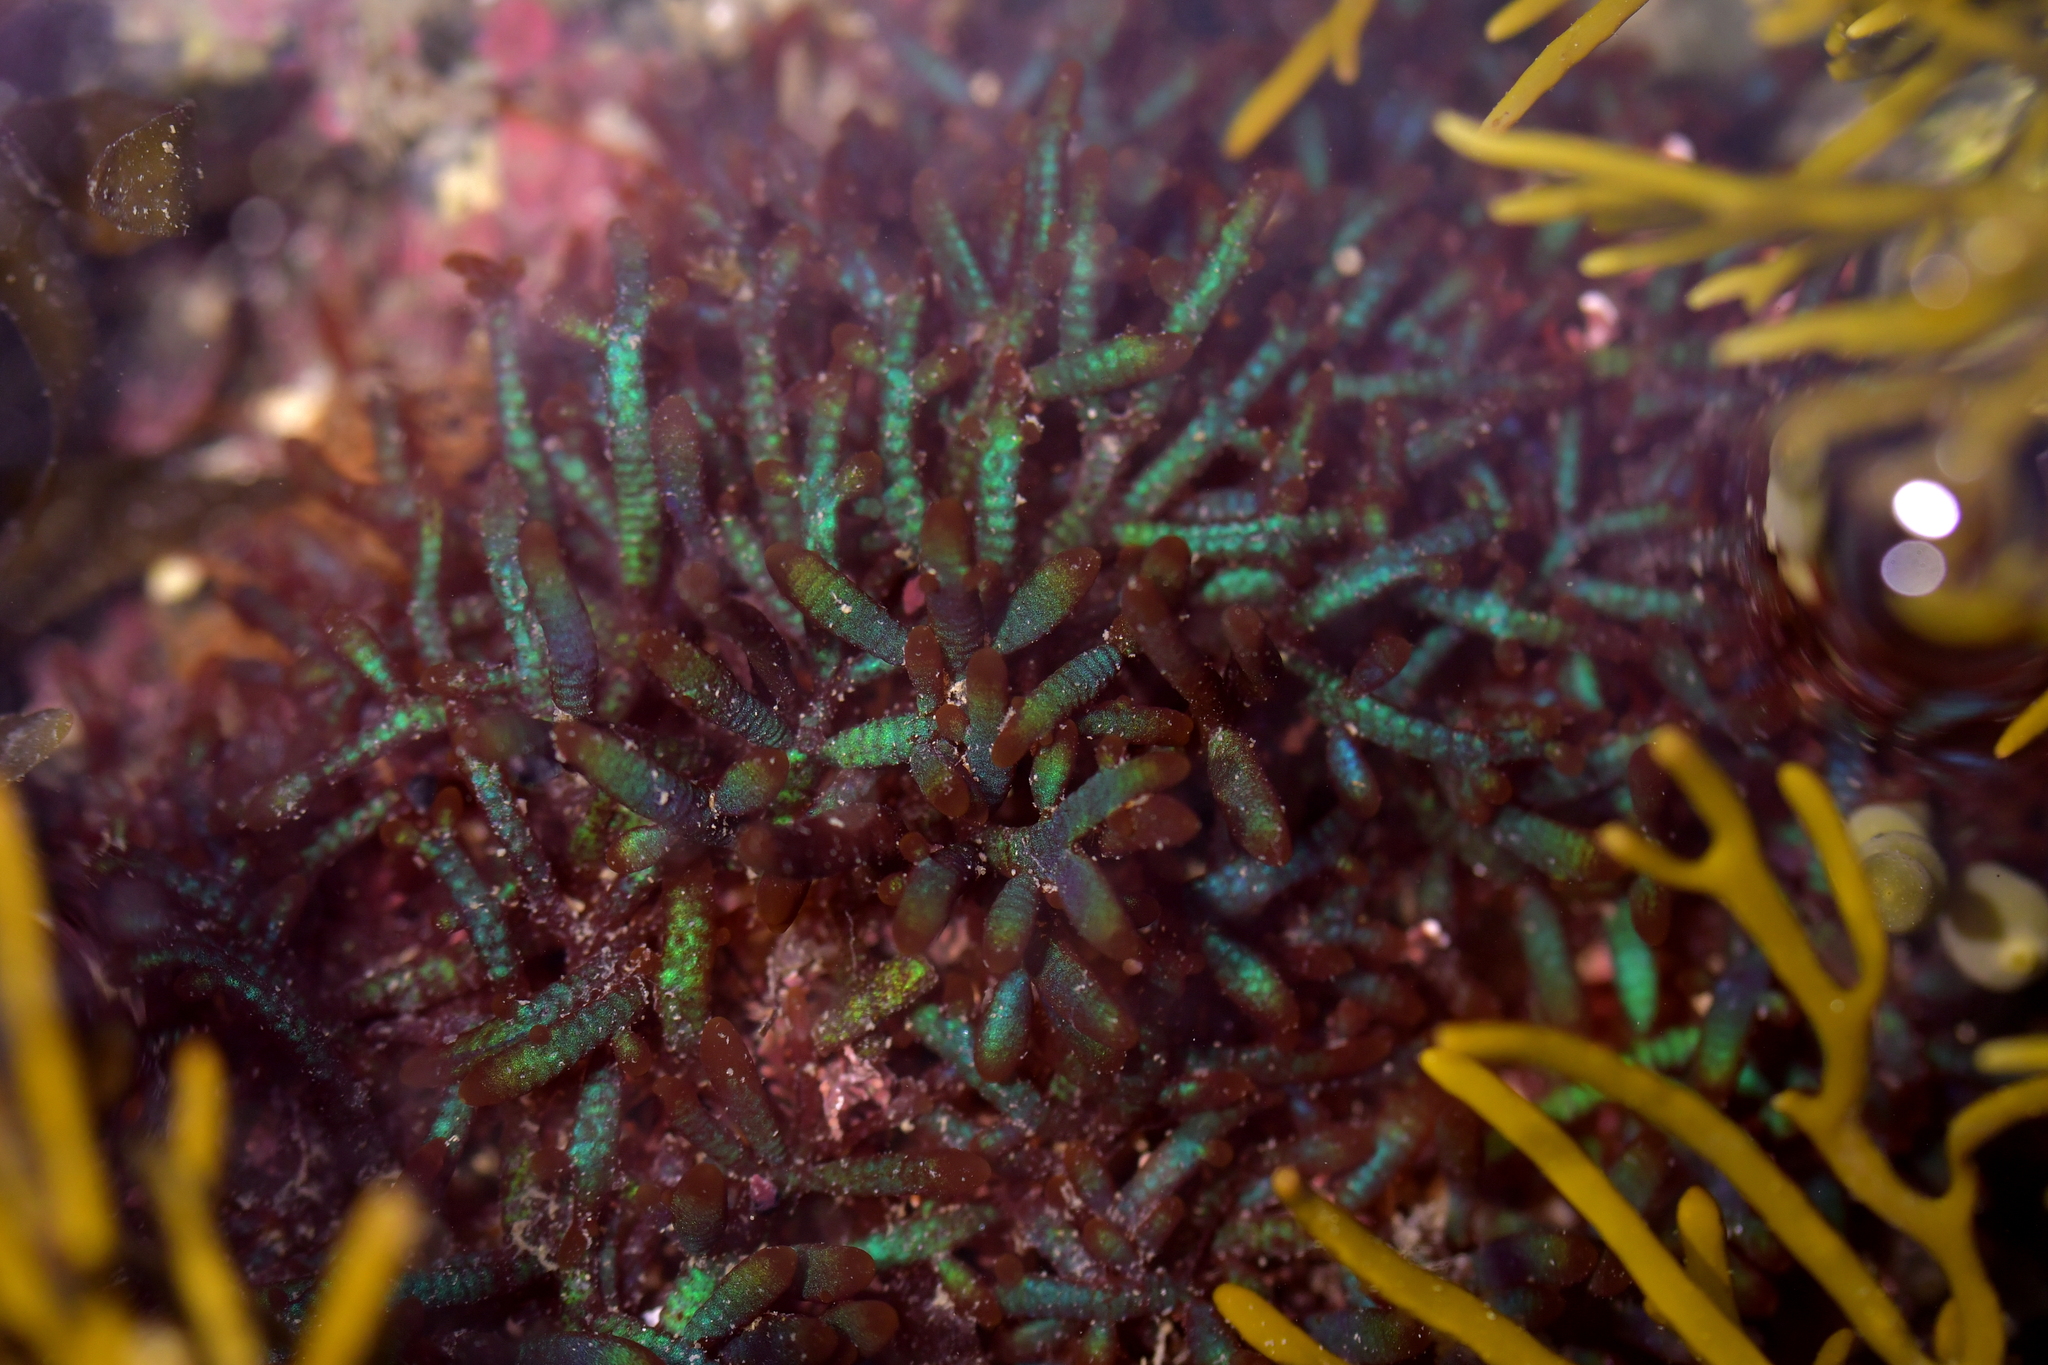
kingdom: Plantae
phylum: Rhodophyta
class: Florideophyceae
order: Rhodymeniales
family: Champiaceae
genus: Champia
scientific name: Champia laingii
